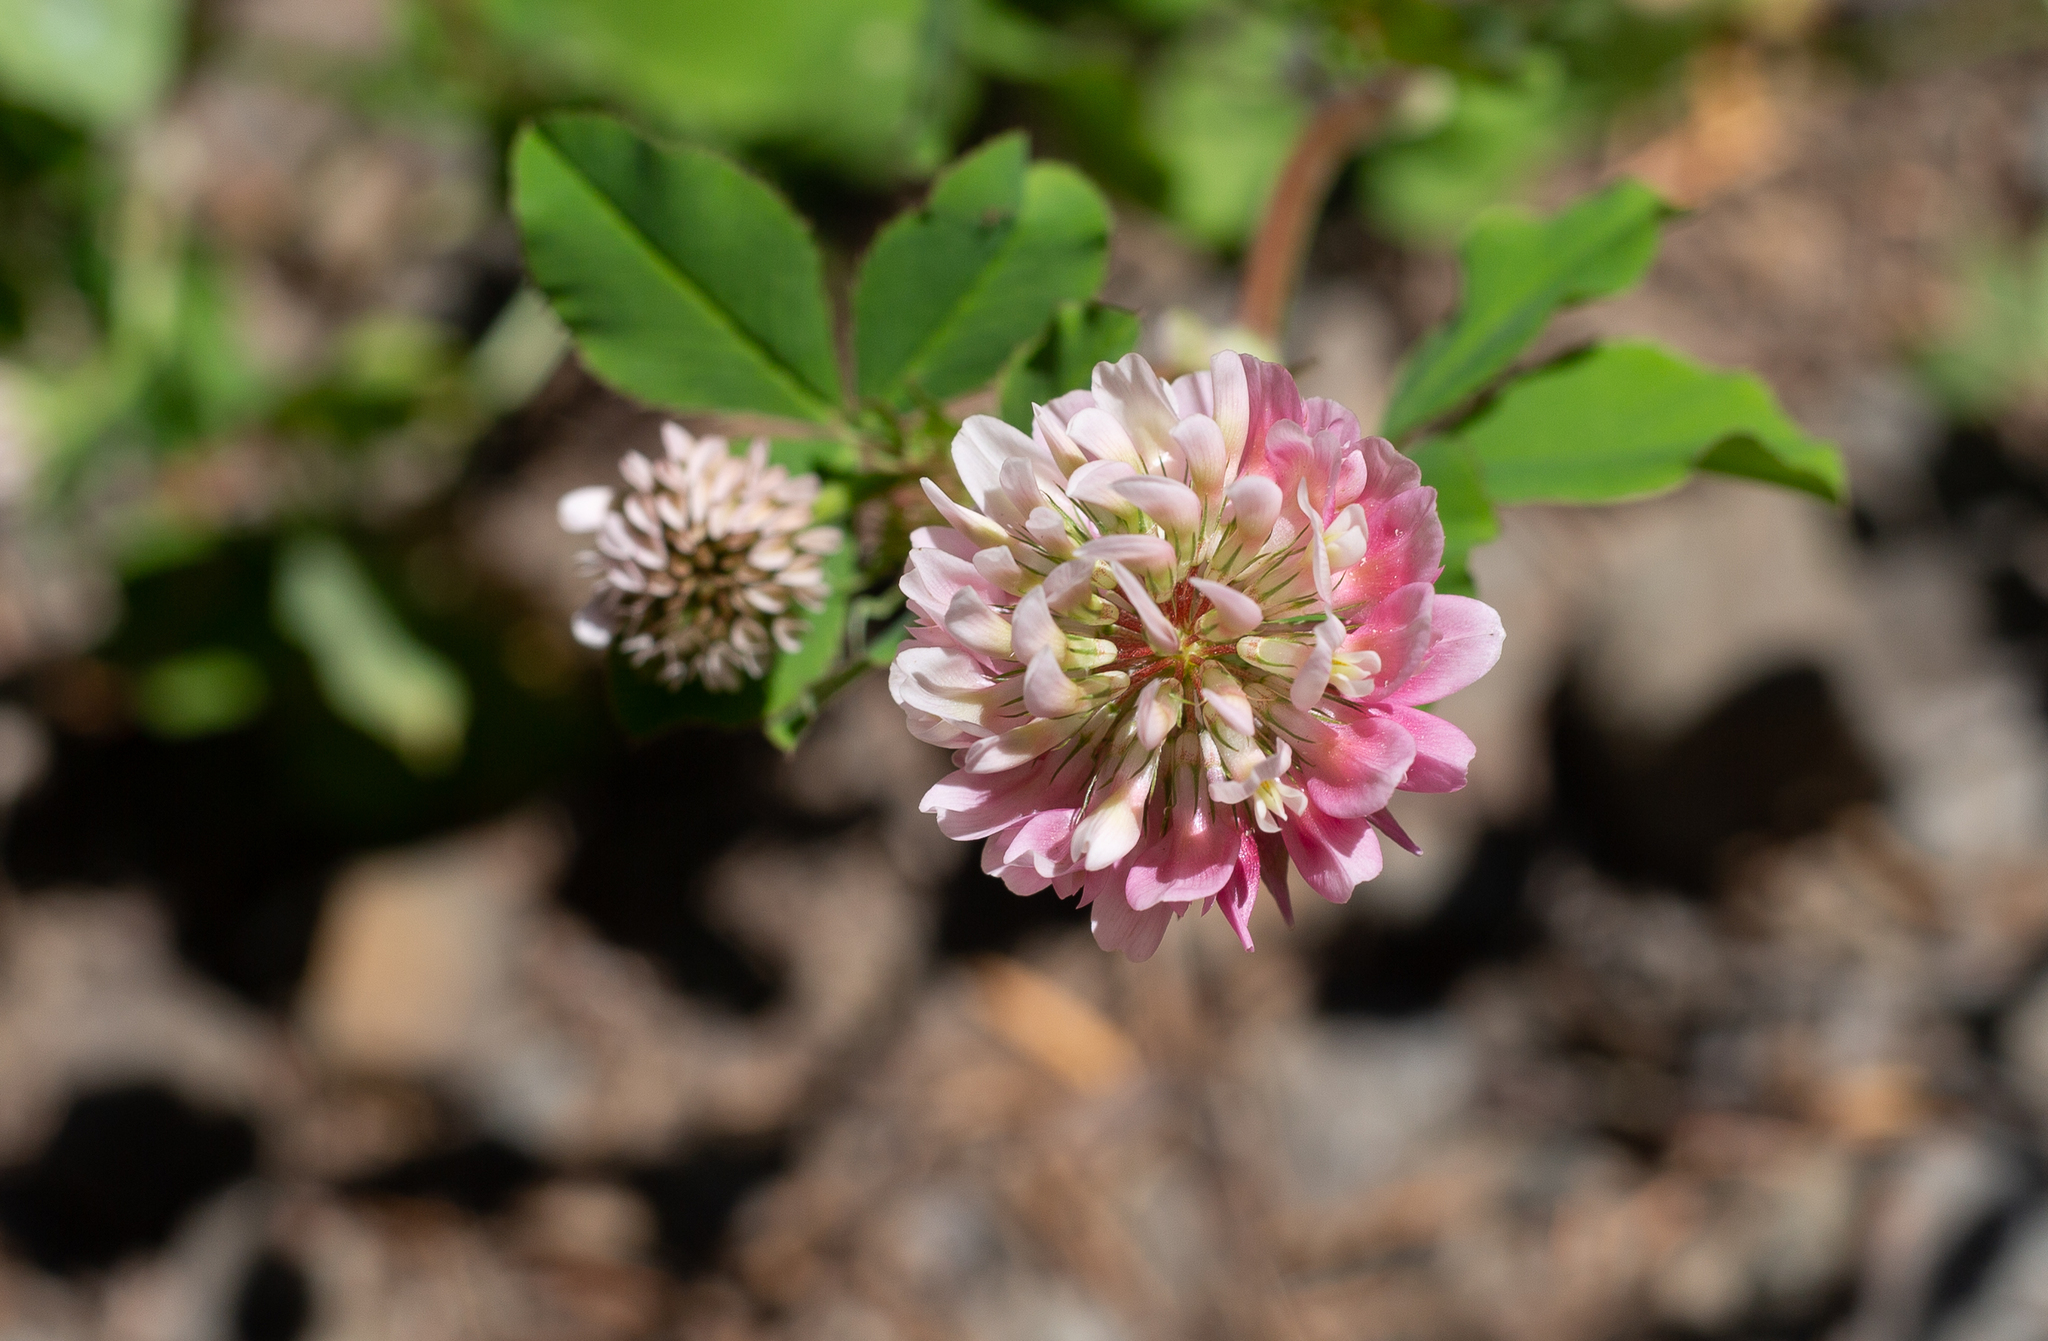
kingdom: Plantae
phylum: Tracheophyta
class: Magnoliopsida
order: Fabales
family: Fabaceae
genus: Trifolium
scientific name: Trifolium hybridum
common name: Alsike clover
